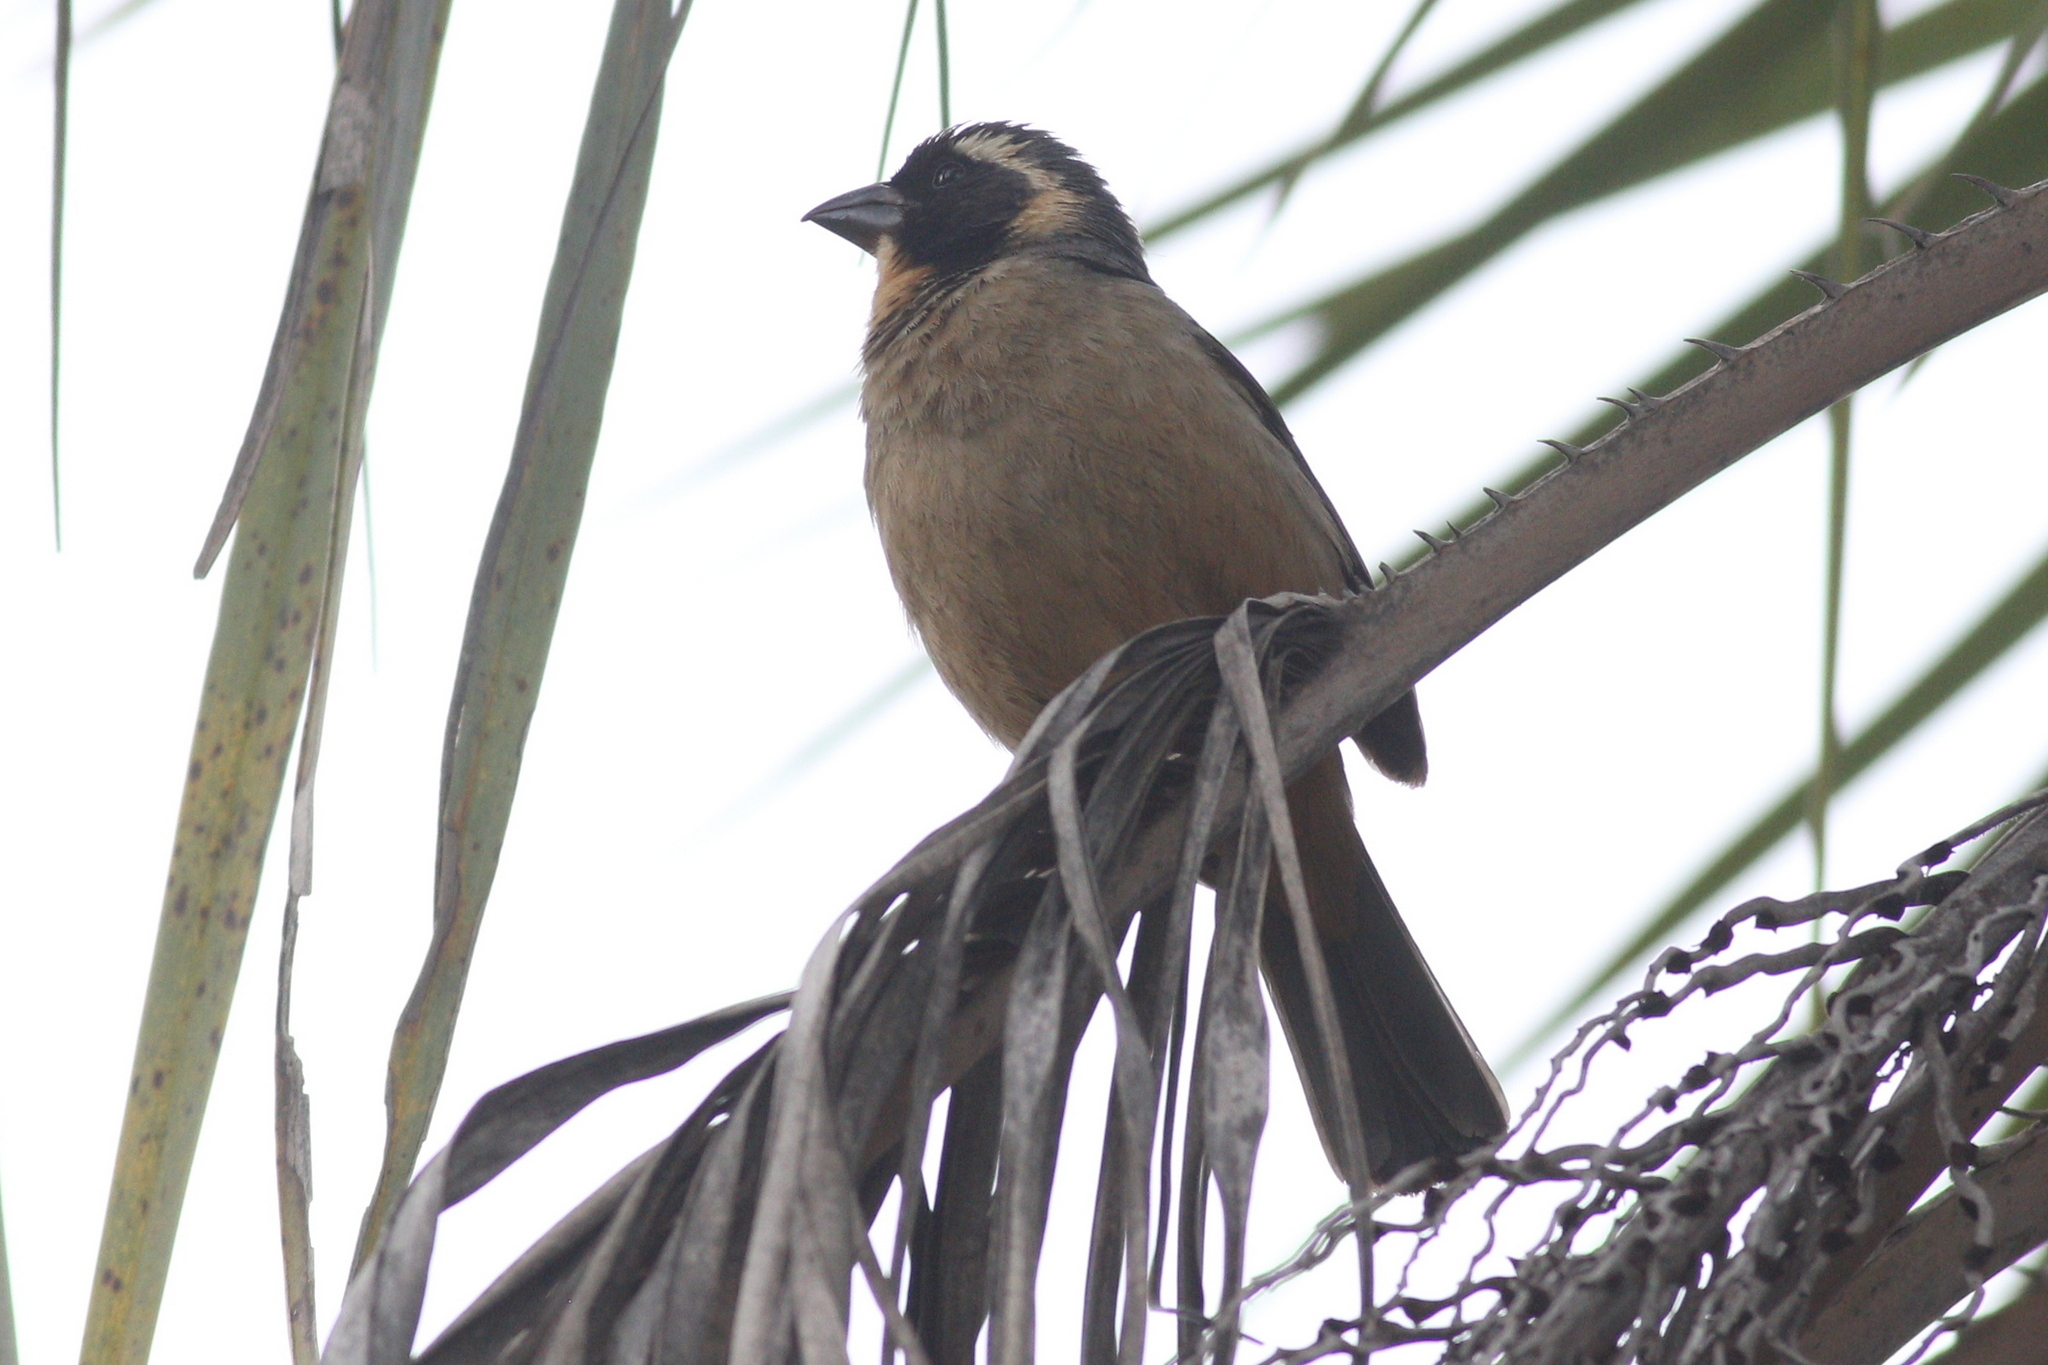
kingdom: Animalia
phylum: Chordata
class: Aves
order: Passeriformes
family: Thraupidae
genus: Saltator
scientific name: Saltator aurantiirostris
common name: Golden-billed saltator
